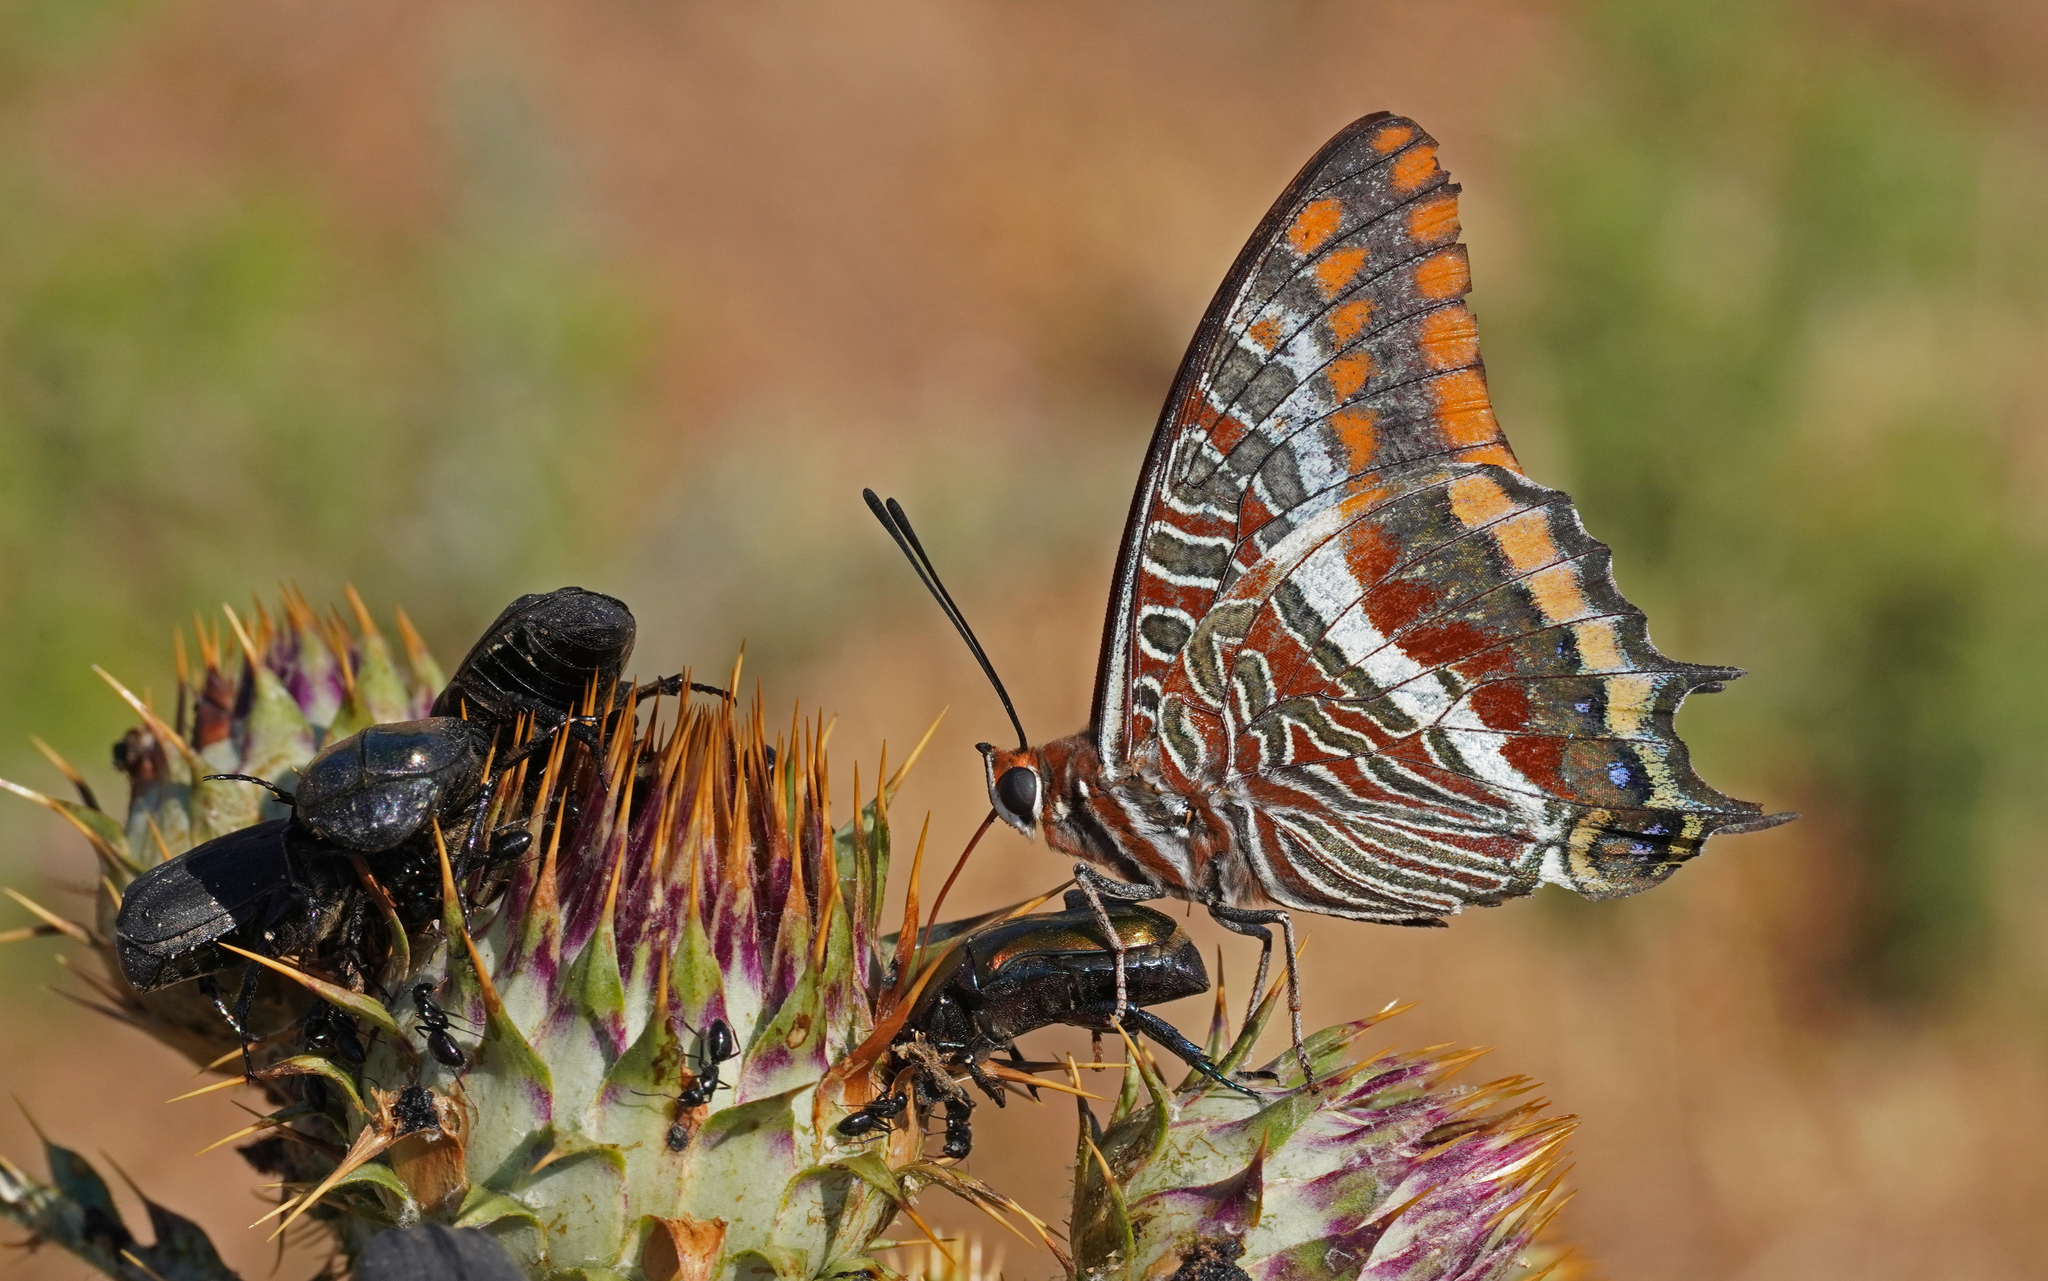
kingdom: Animalia
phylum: Arthropoda
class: Insecta
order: Lepidoptera
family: Nymphalidae
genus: Charaxes
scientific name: Charaxes jasius
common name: Two tailed pasha
